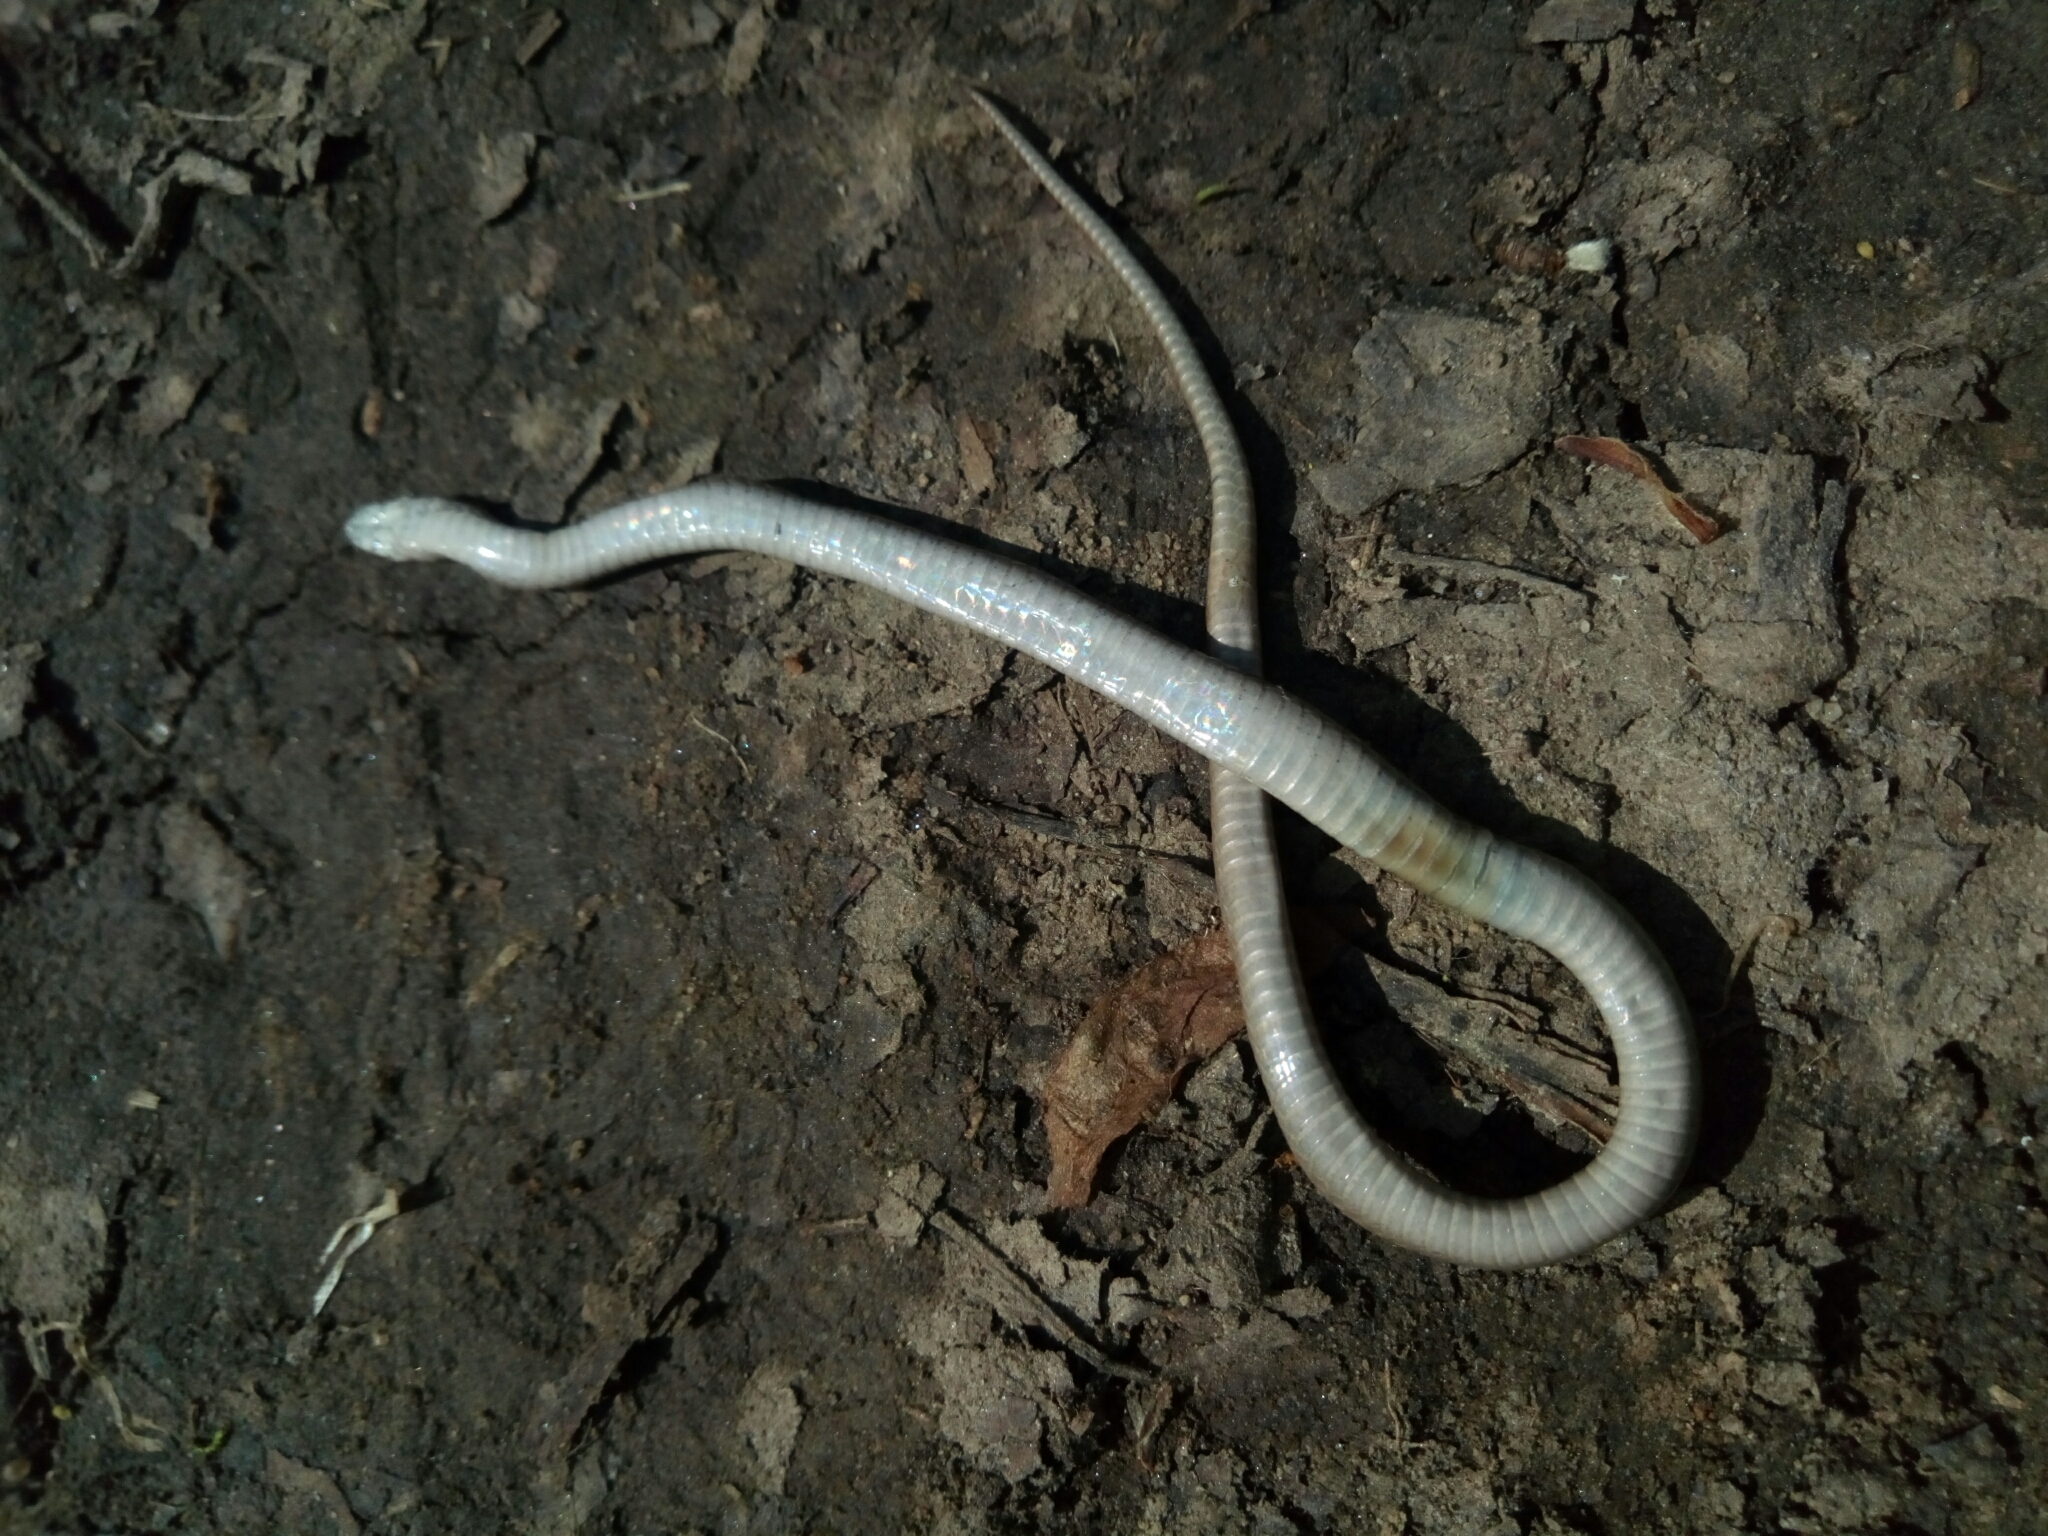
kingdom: Animalia
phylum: Chordata
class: Squamata
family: Colubridae
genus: Storeria
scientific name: Storeria dekayi
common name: (dekay’s) brown snake
